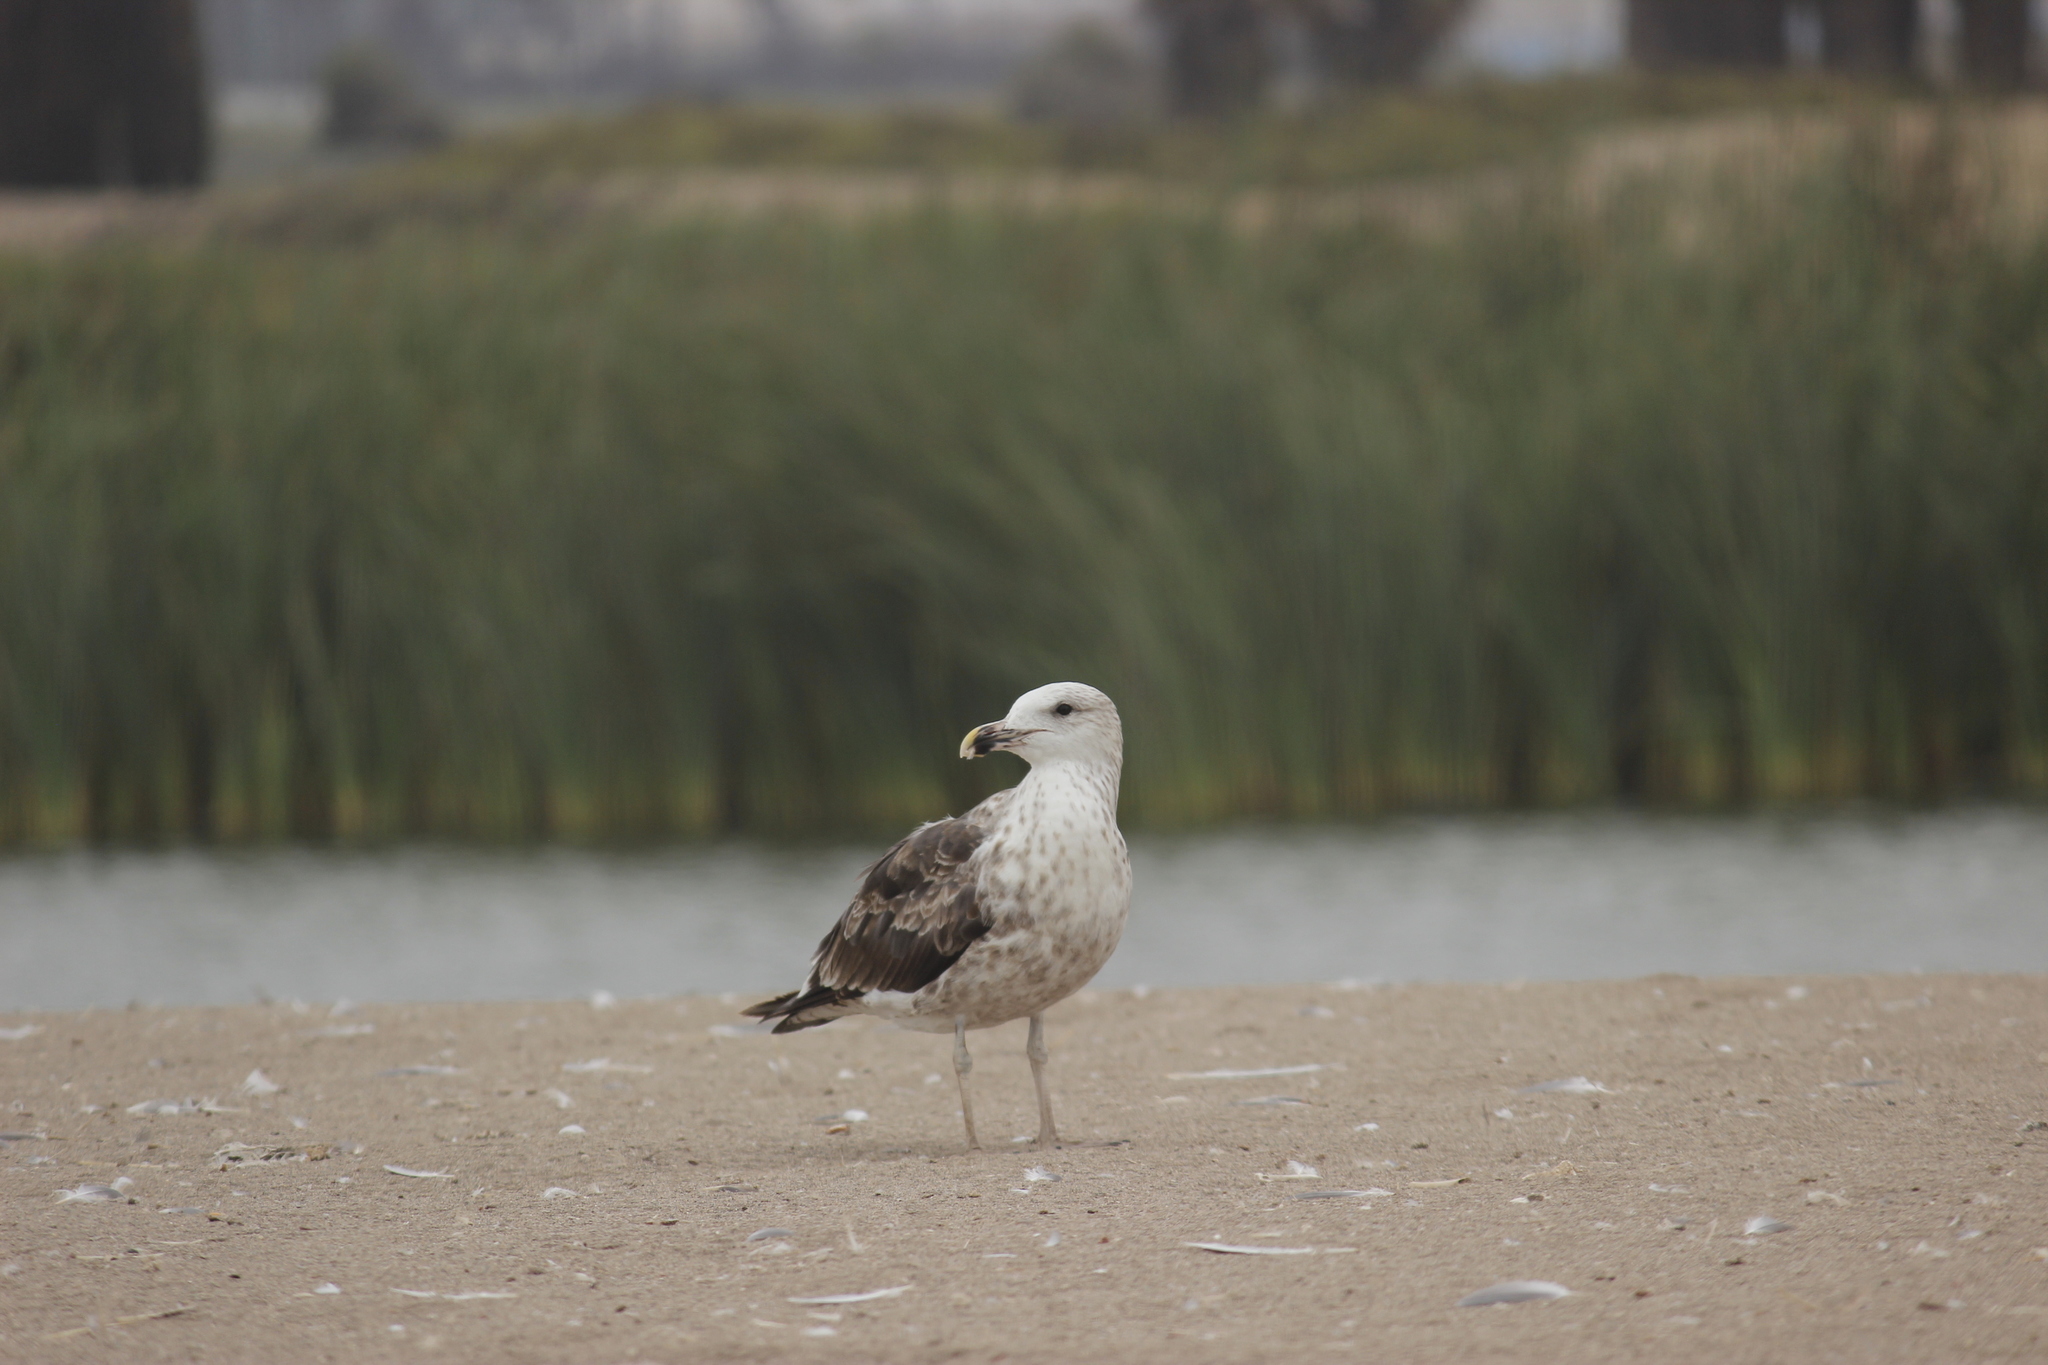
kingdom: Animalia
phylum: Chordata
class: Aves
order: Charadriiformes
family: Laridae
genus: Larus
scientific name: Larus dominicanus
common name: Kelp gull
